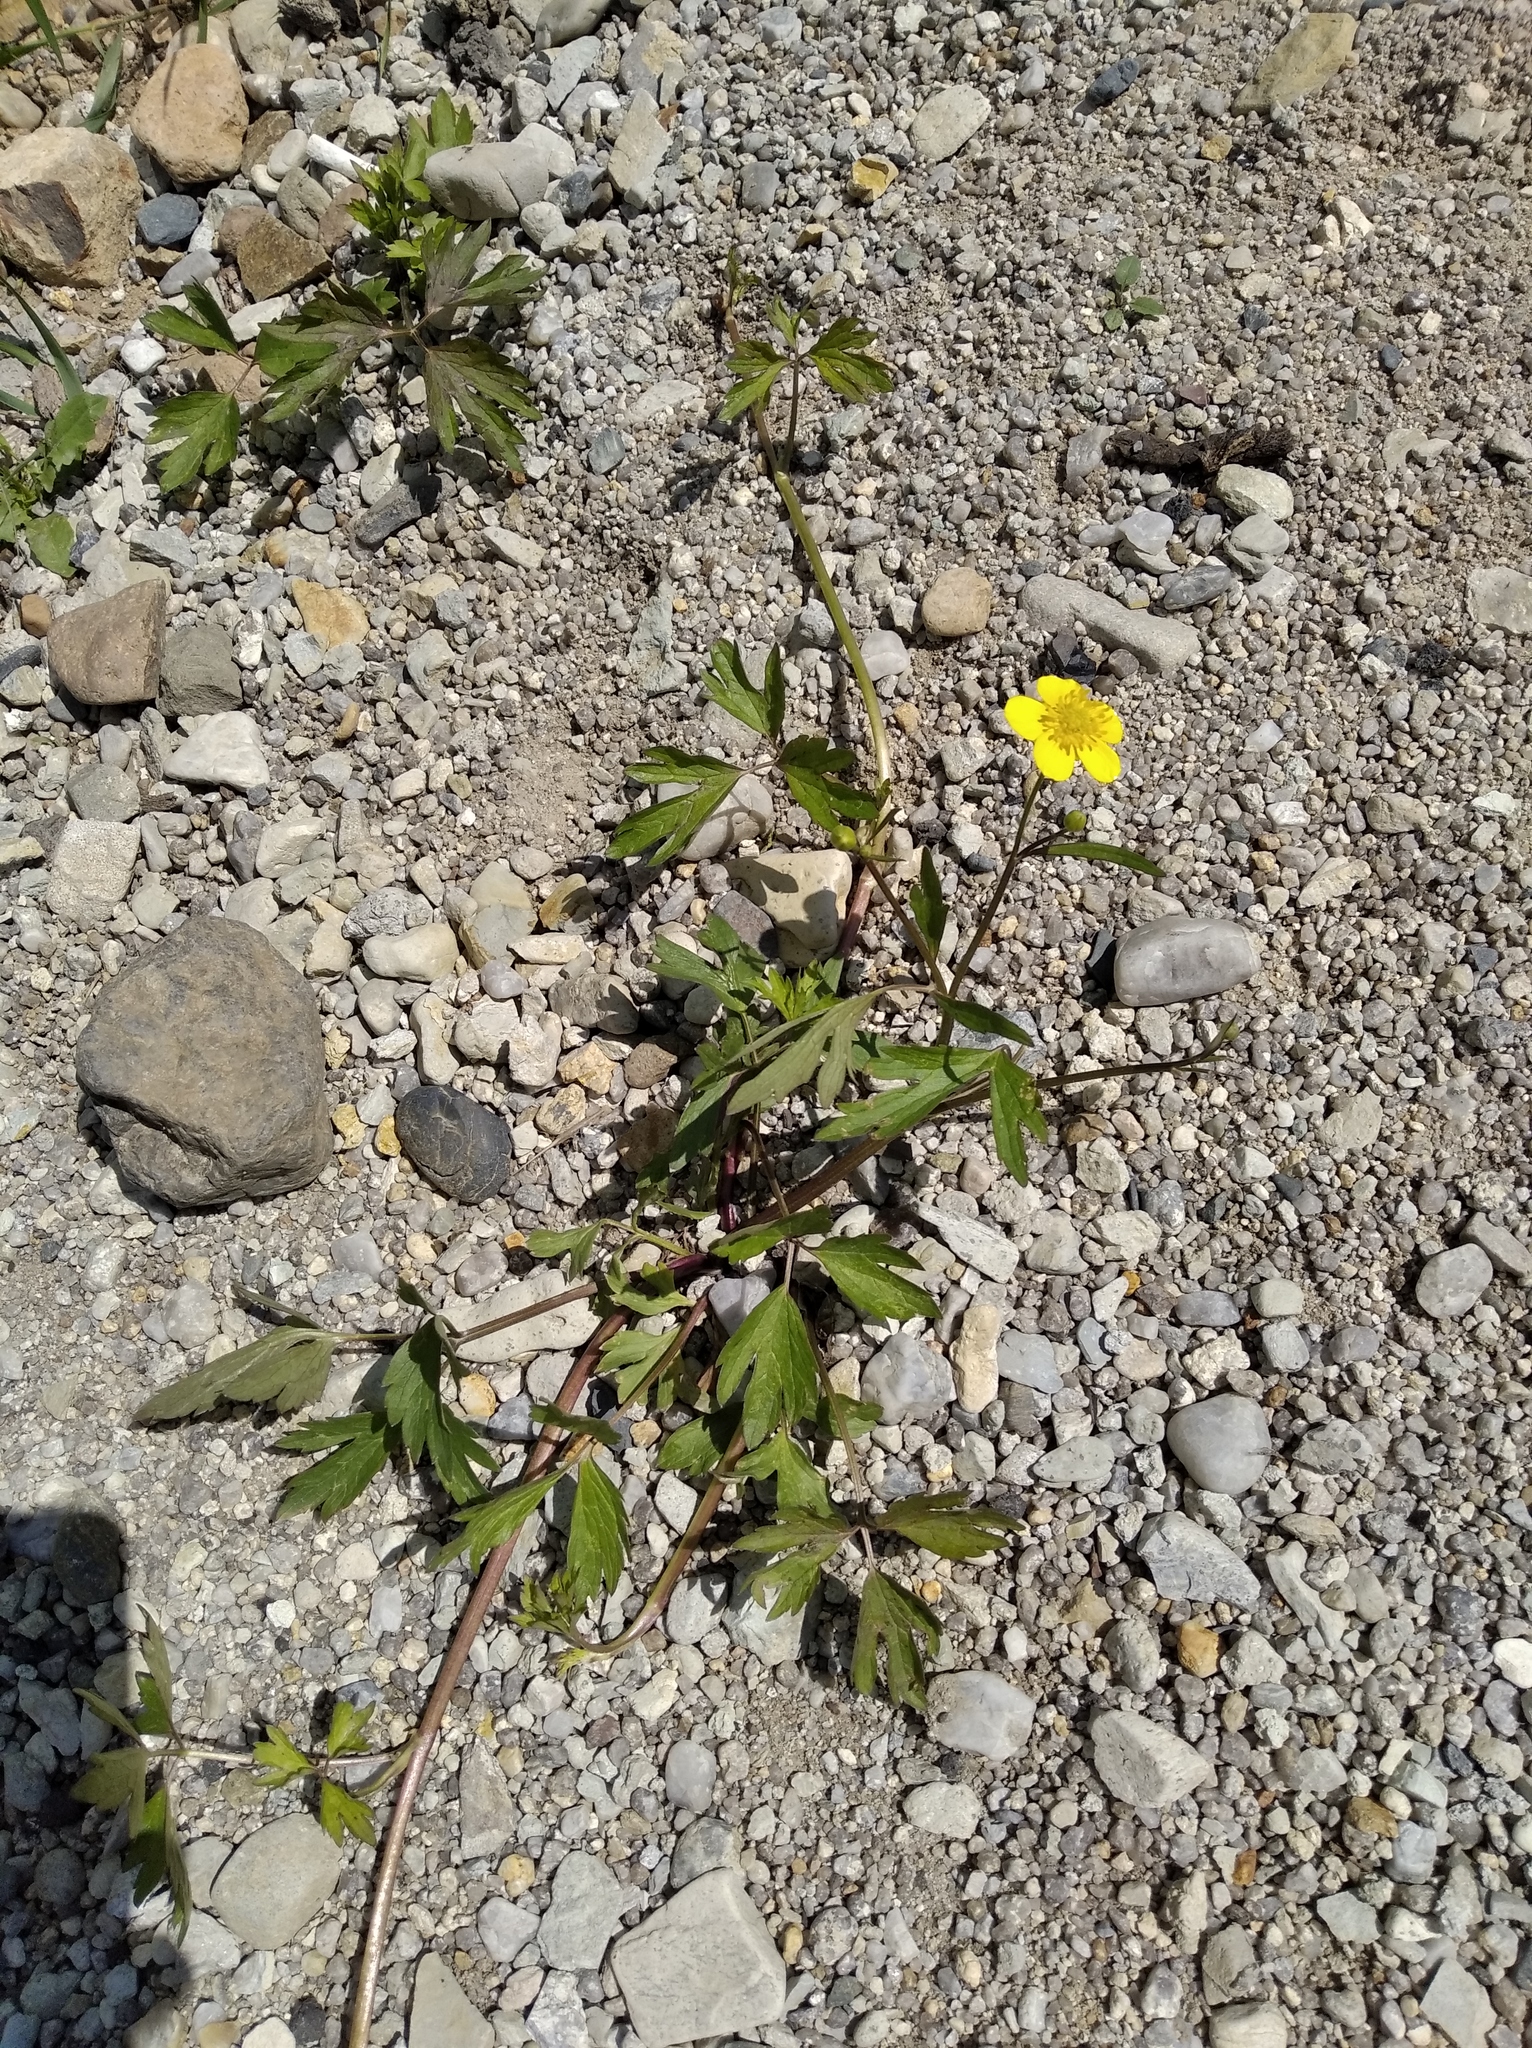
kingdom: Plantae
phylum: Tracheophyta
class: Magnoliopsida
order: Ranunculales
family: Ranunculaceae
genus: Ranunculus
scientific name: Ranunculus repens
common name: Creeping buttercup
